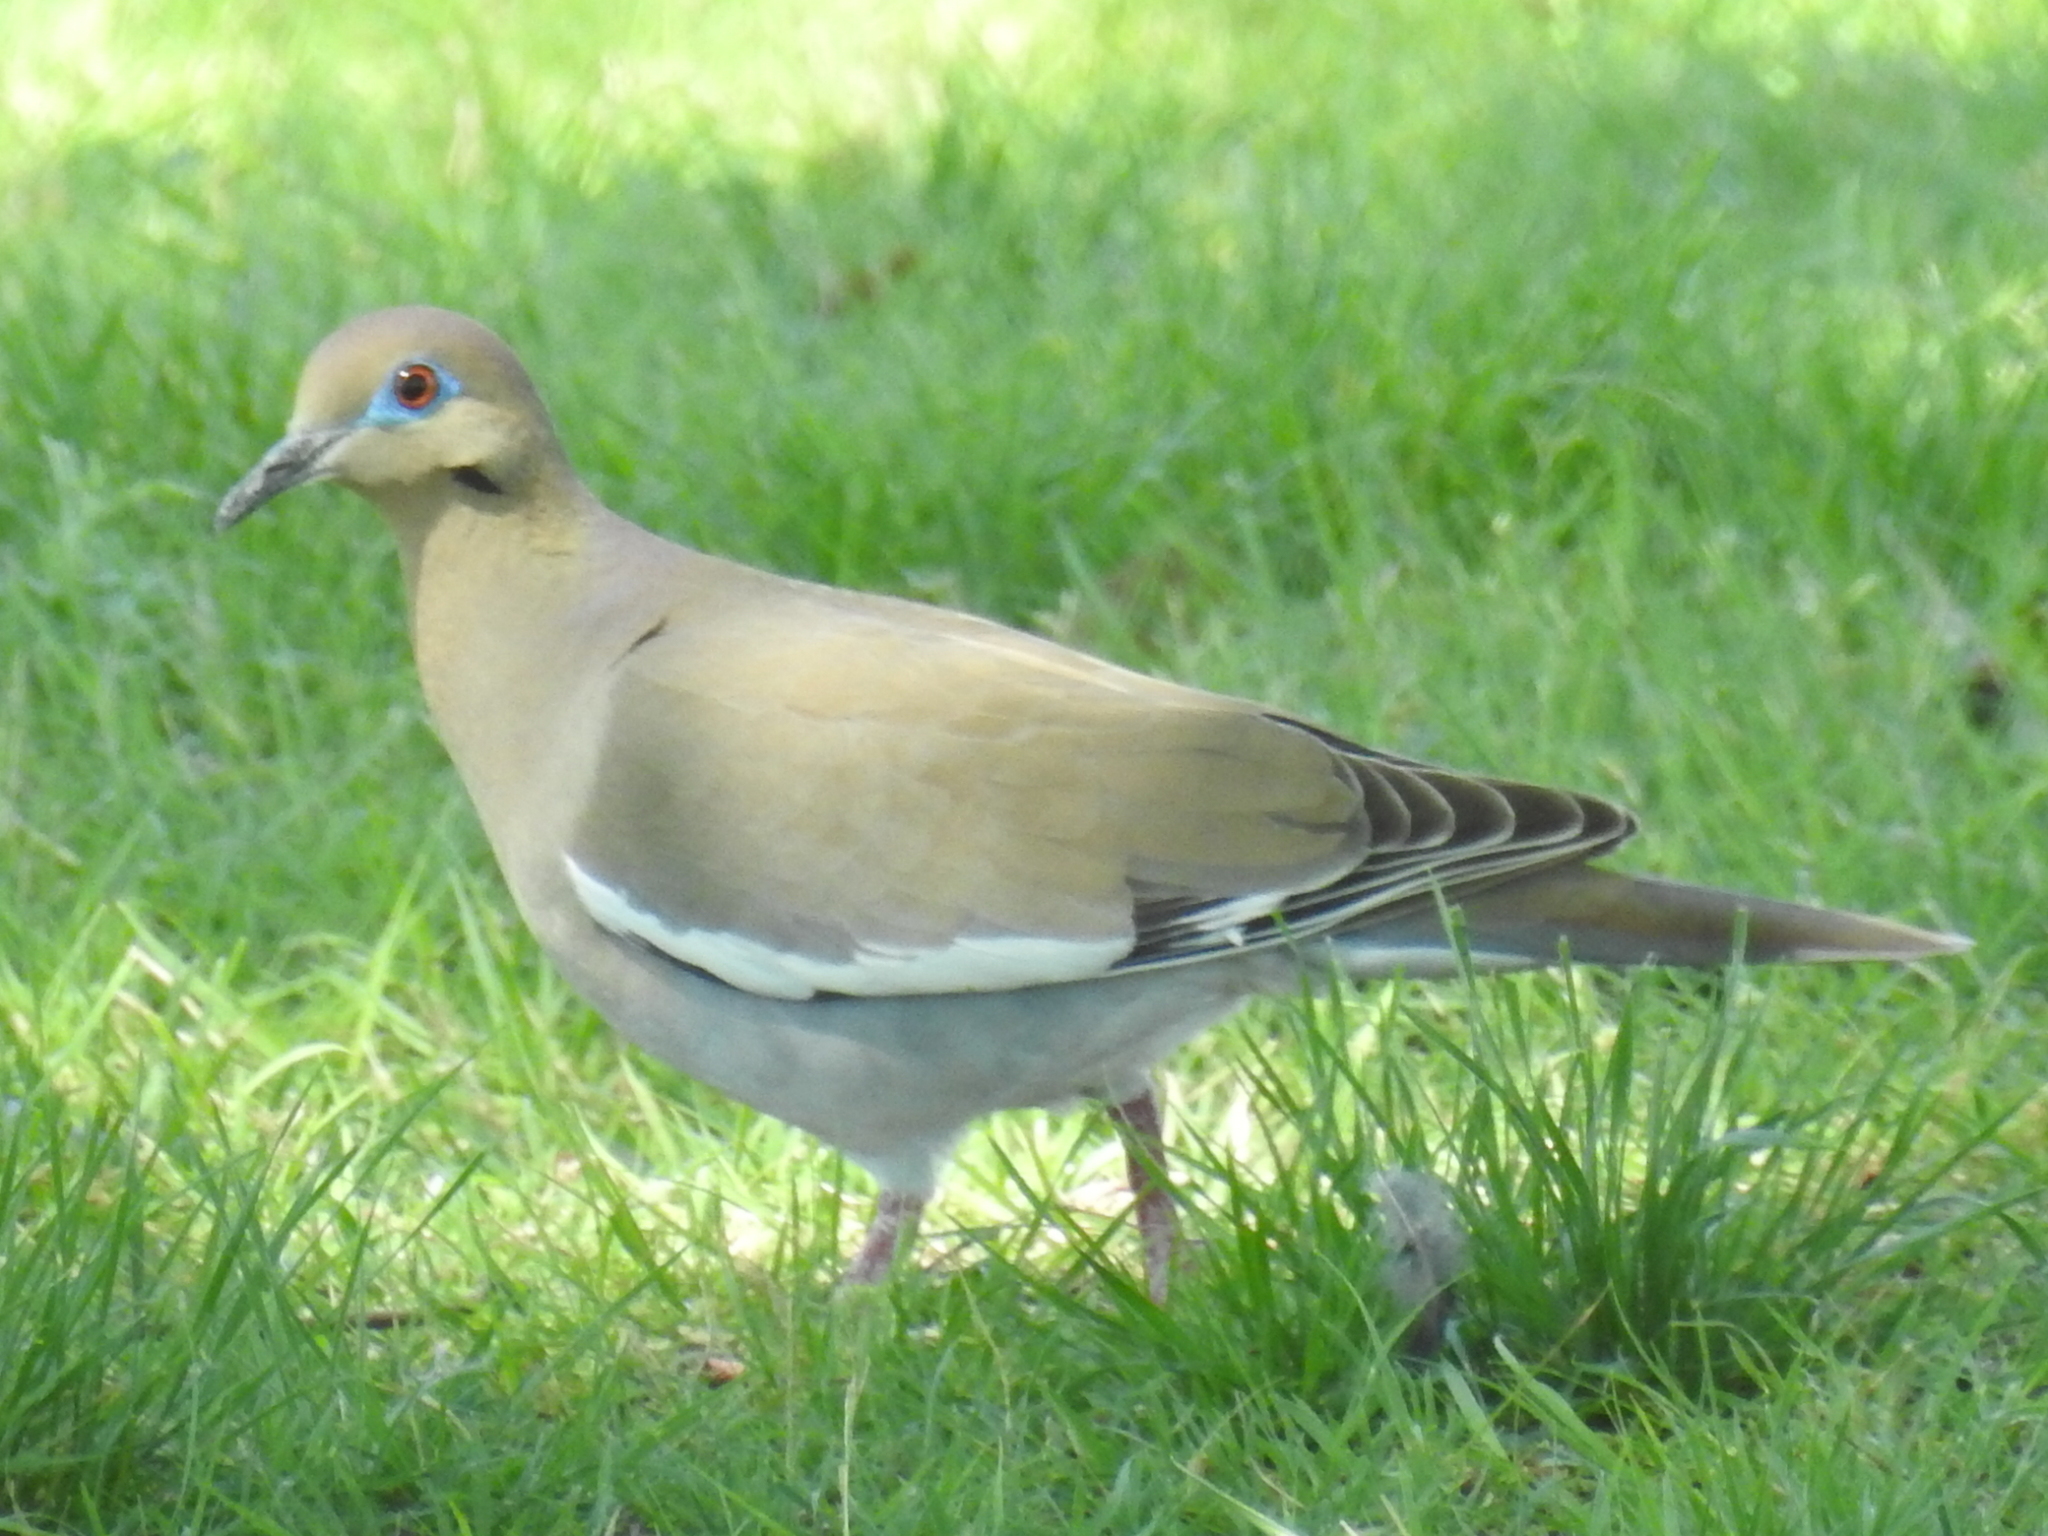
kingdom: Animalia
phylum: Chordata
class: Aves
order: Columbiformes
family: Columbidae
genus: Zenaida
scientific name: Zenaida asiatica
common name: White-winged dove
